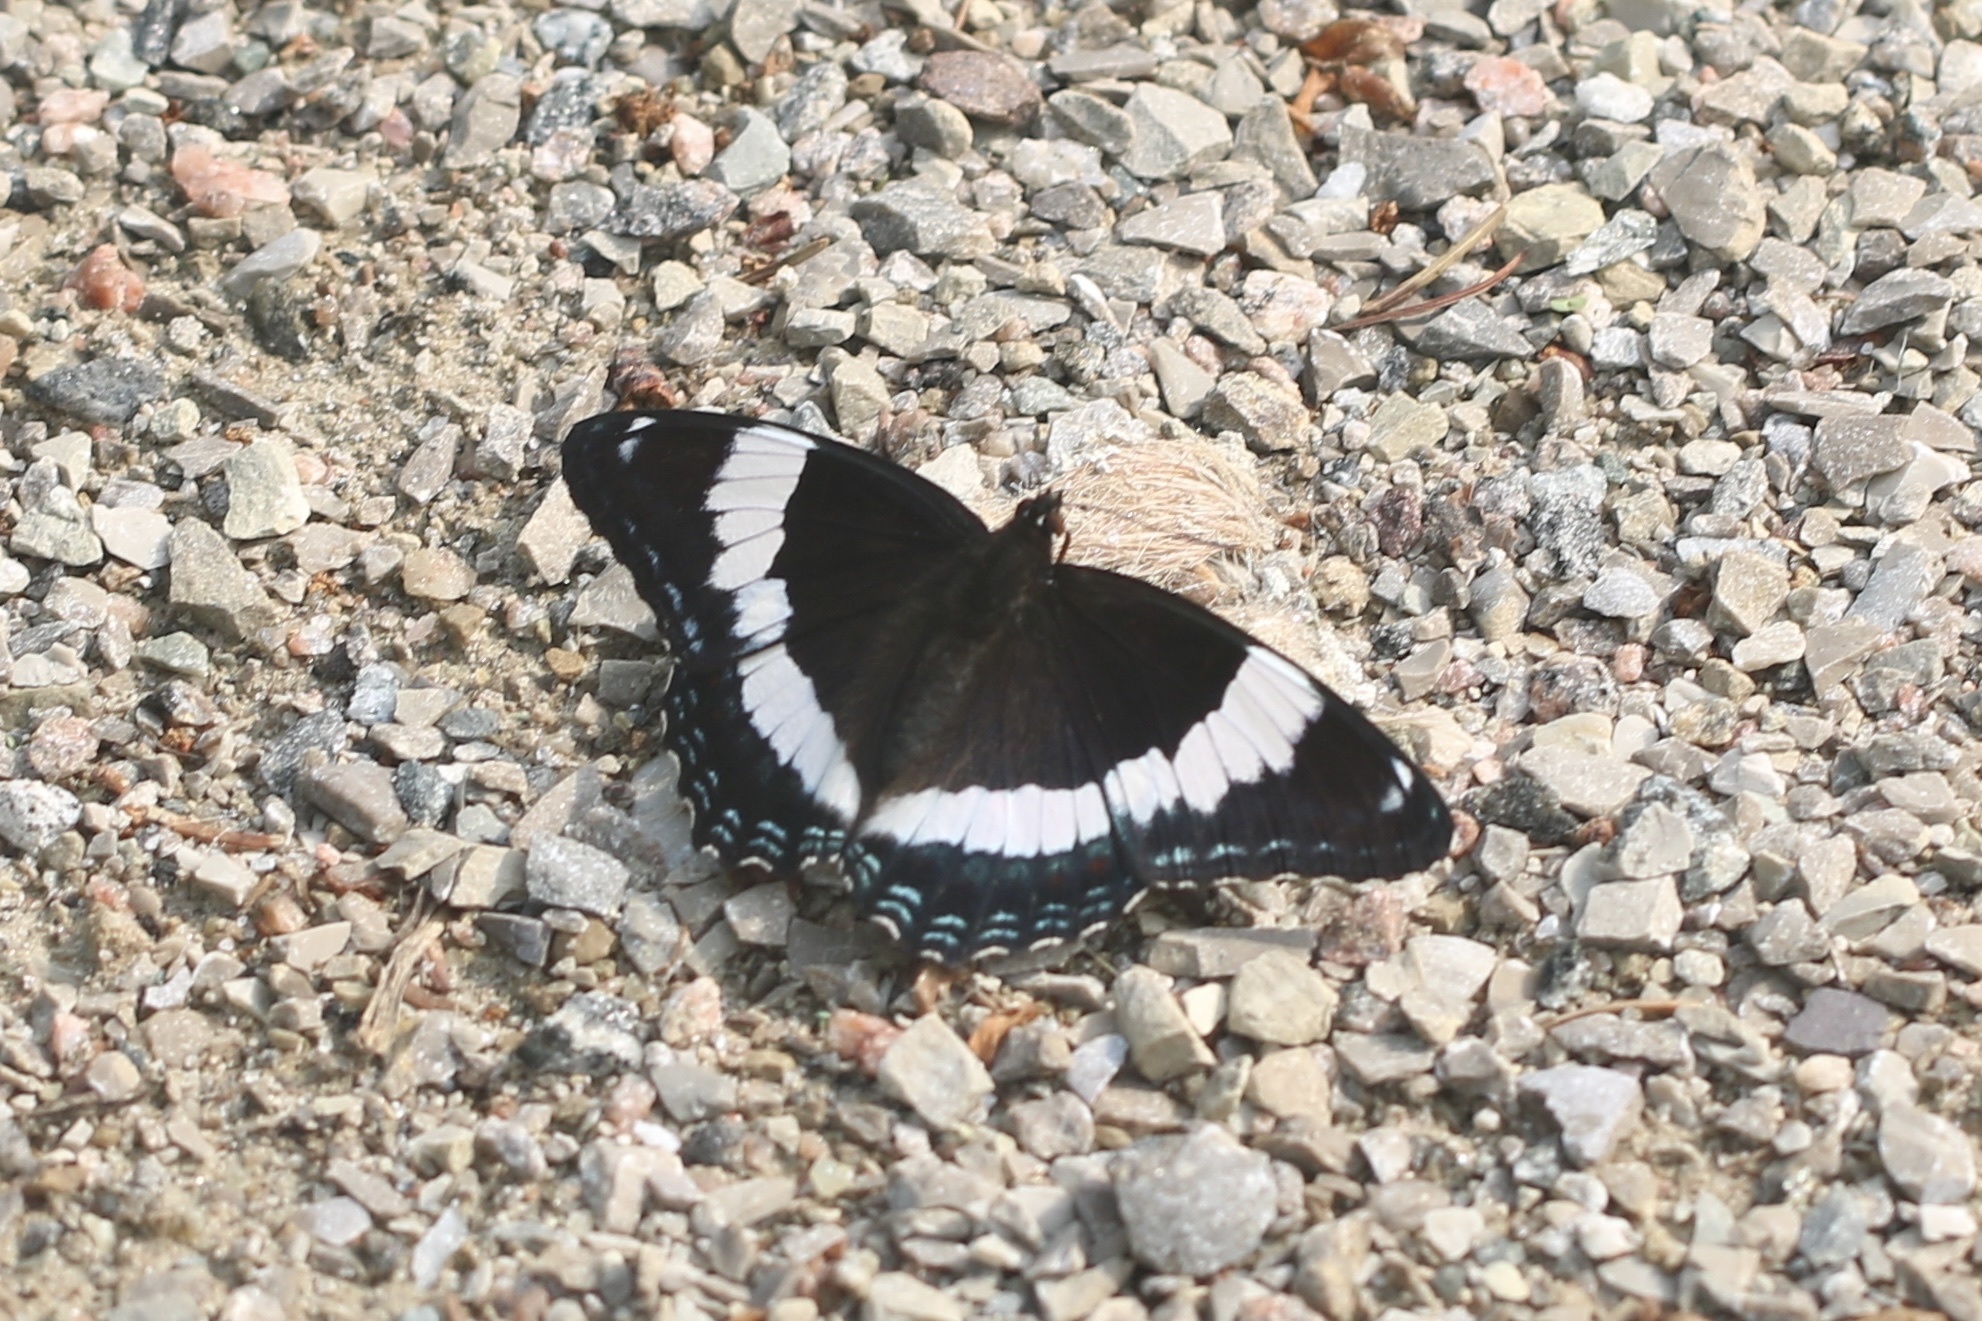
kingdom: Animalia
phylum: Arthropoda
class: Insecta
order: Lepidoptera
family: Nymphalidae
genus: Limenitis
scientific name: Limenitis arthemis
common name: Red-spotted admiral
